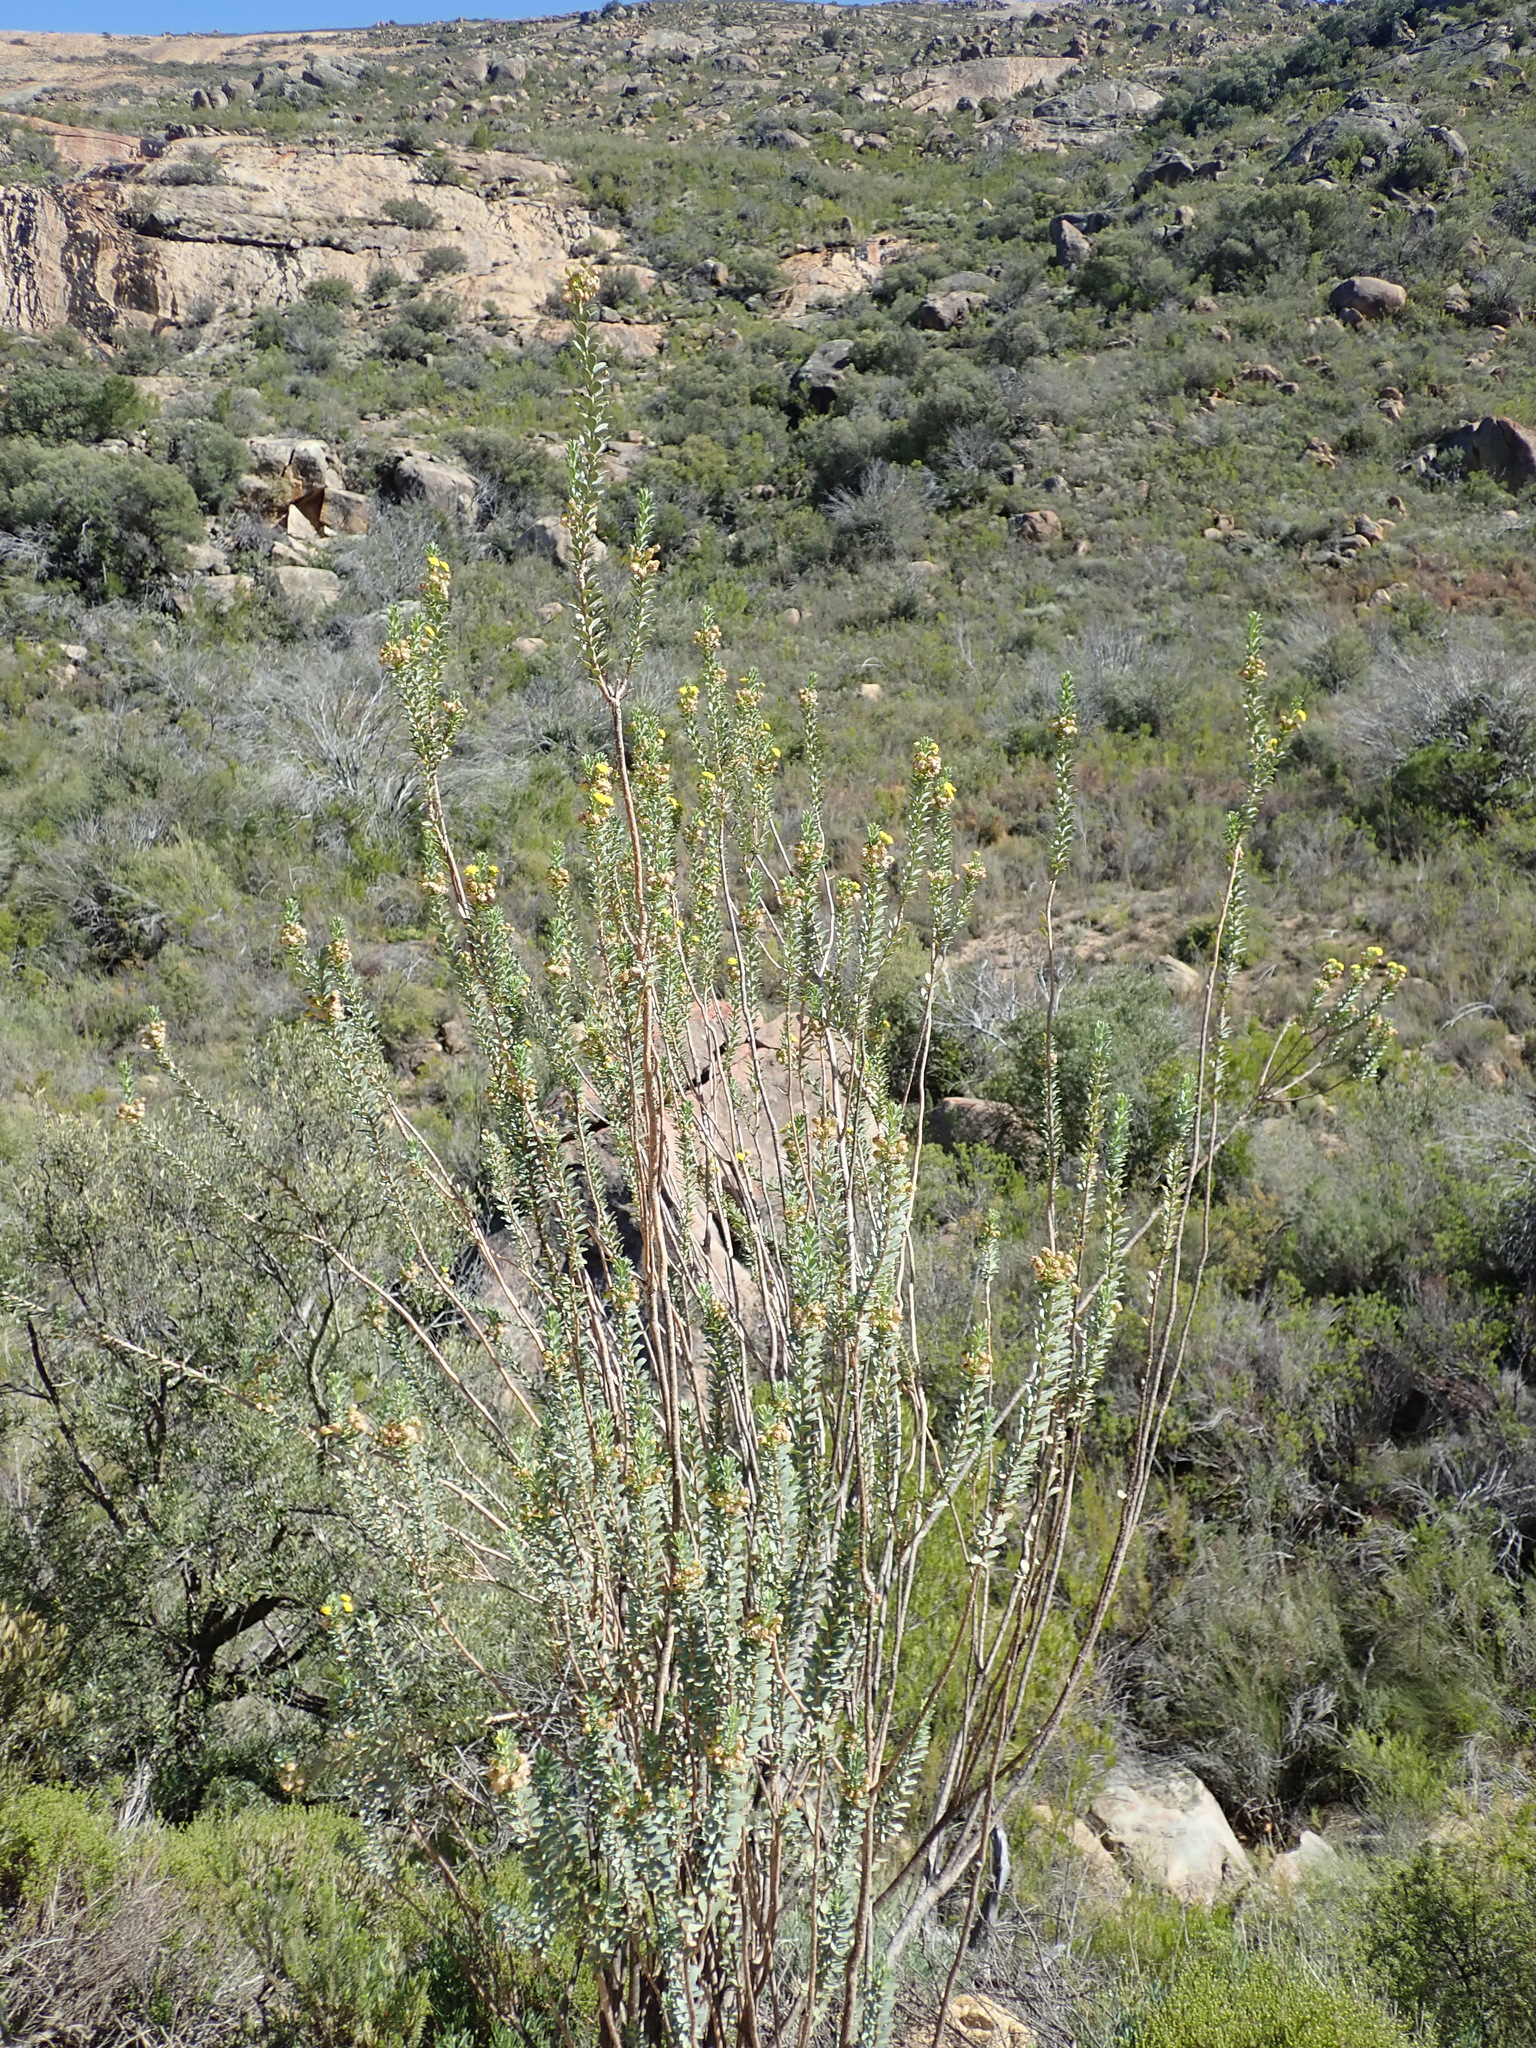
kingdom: Plantae
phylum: Tracheophyta
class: Magnoliopsida
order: Asterales
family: Asteraceae
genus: Euryops
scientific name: Euryops lateriflorus
